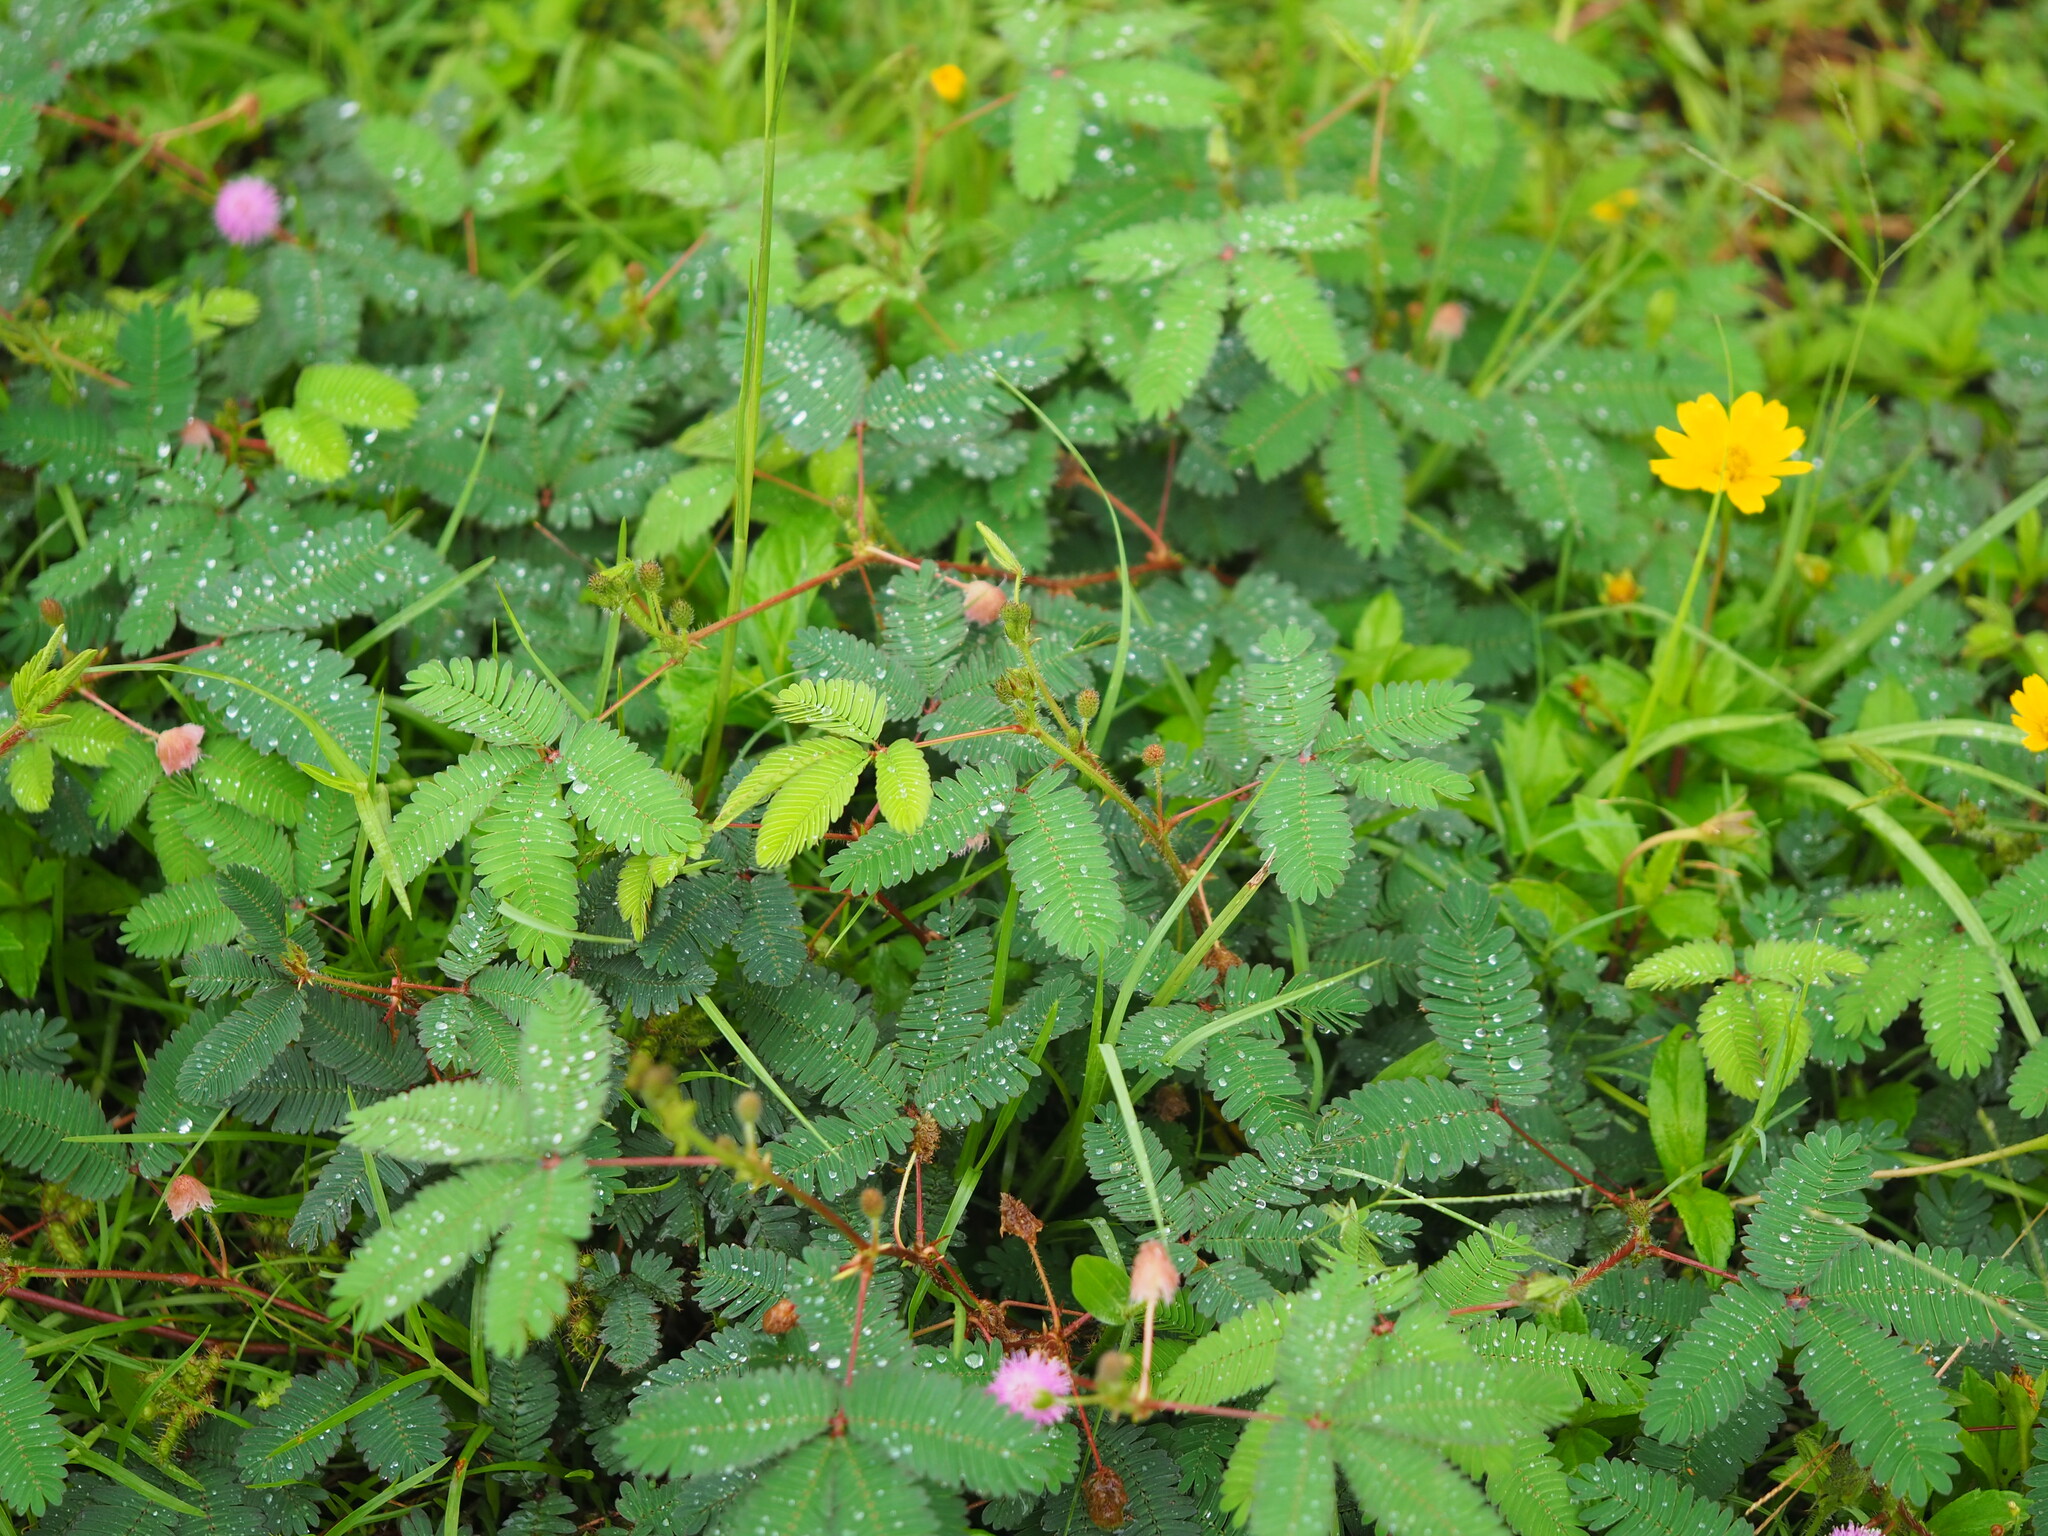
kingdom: Plantae
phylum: Tracheophyta
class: Magnoliopsida
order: Fabales
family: Fabaceae
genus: Mimosa
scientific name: Mimosa pudica
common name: Sensitive plant
